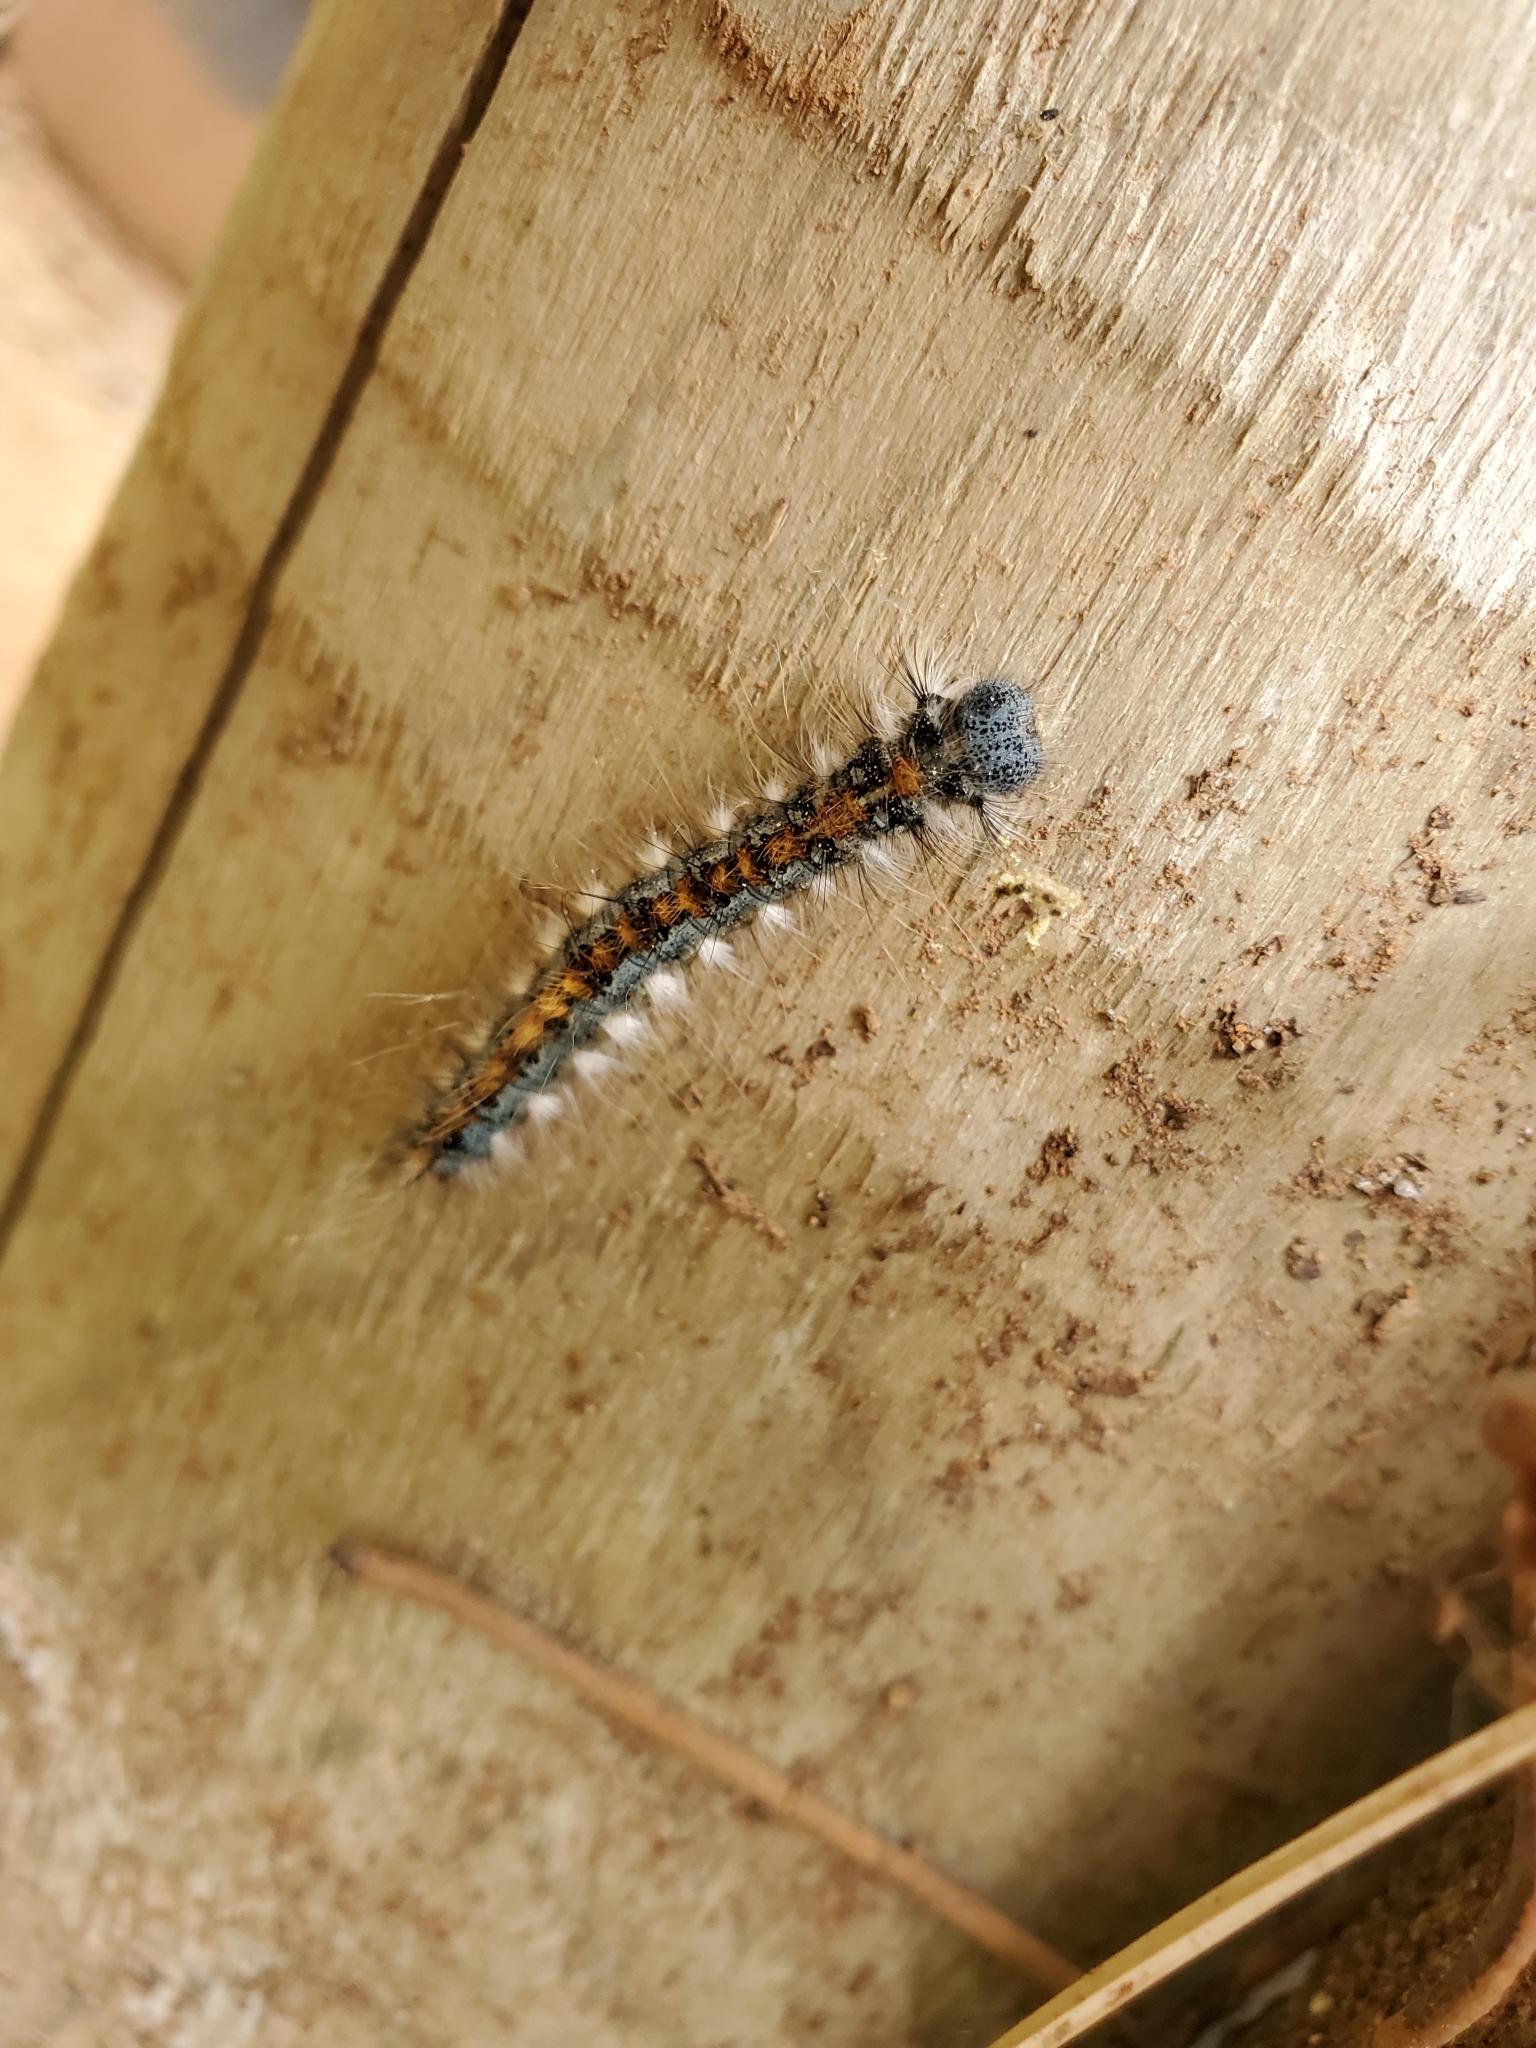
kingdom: Animalia
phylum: Arthropoda
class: Insecta
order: Lepidoptera
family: Lasiocampidae
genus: Malacosoma
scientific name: Malacosoma constricta
